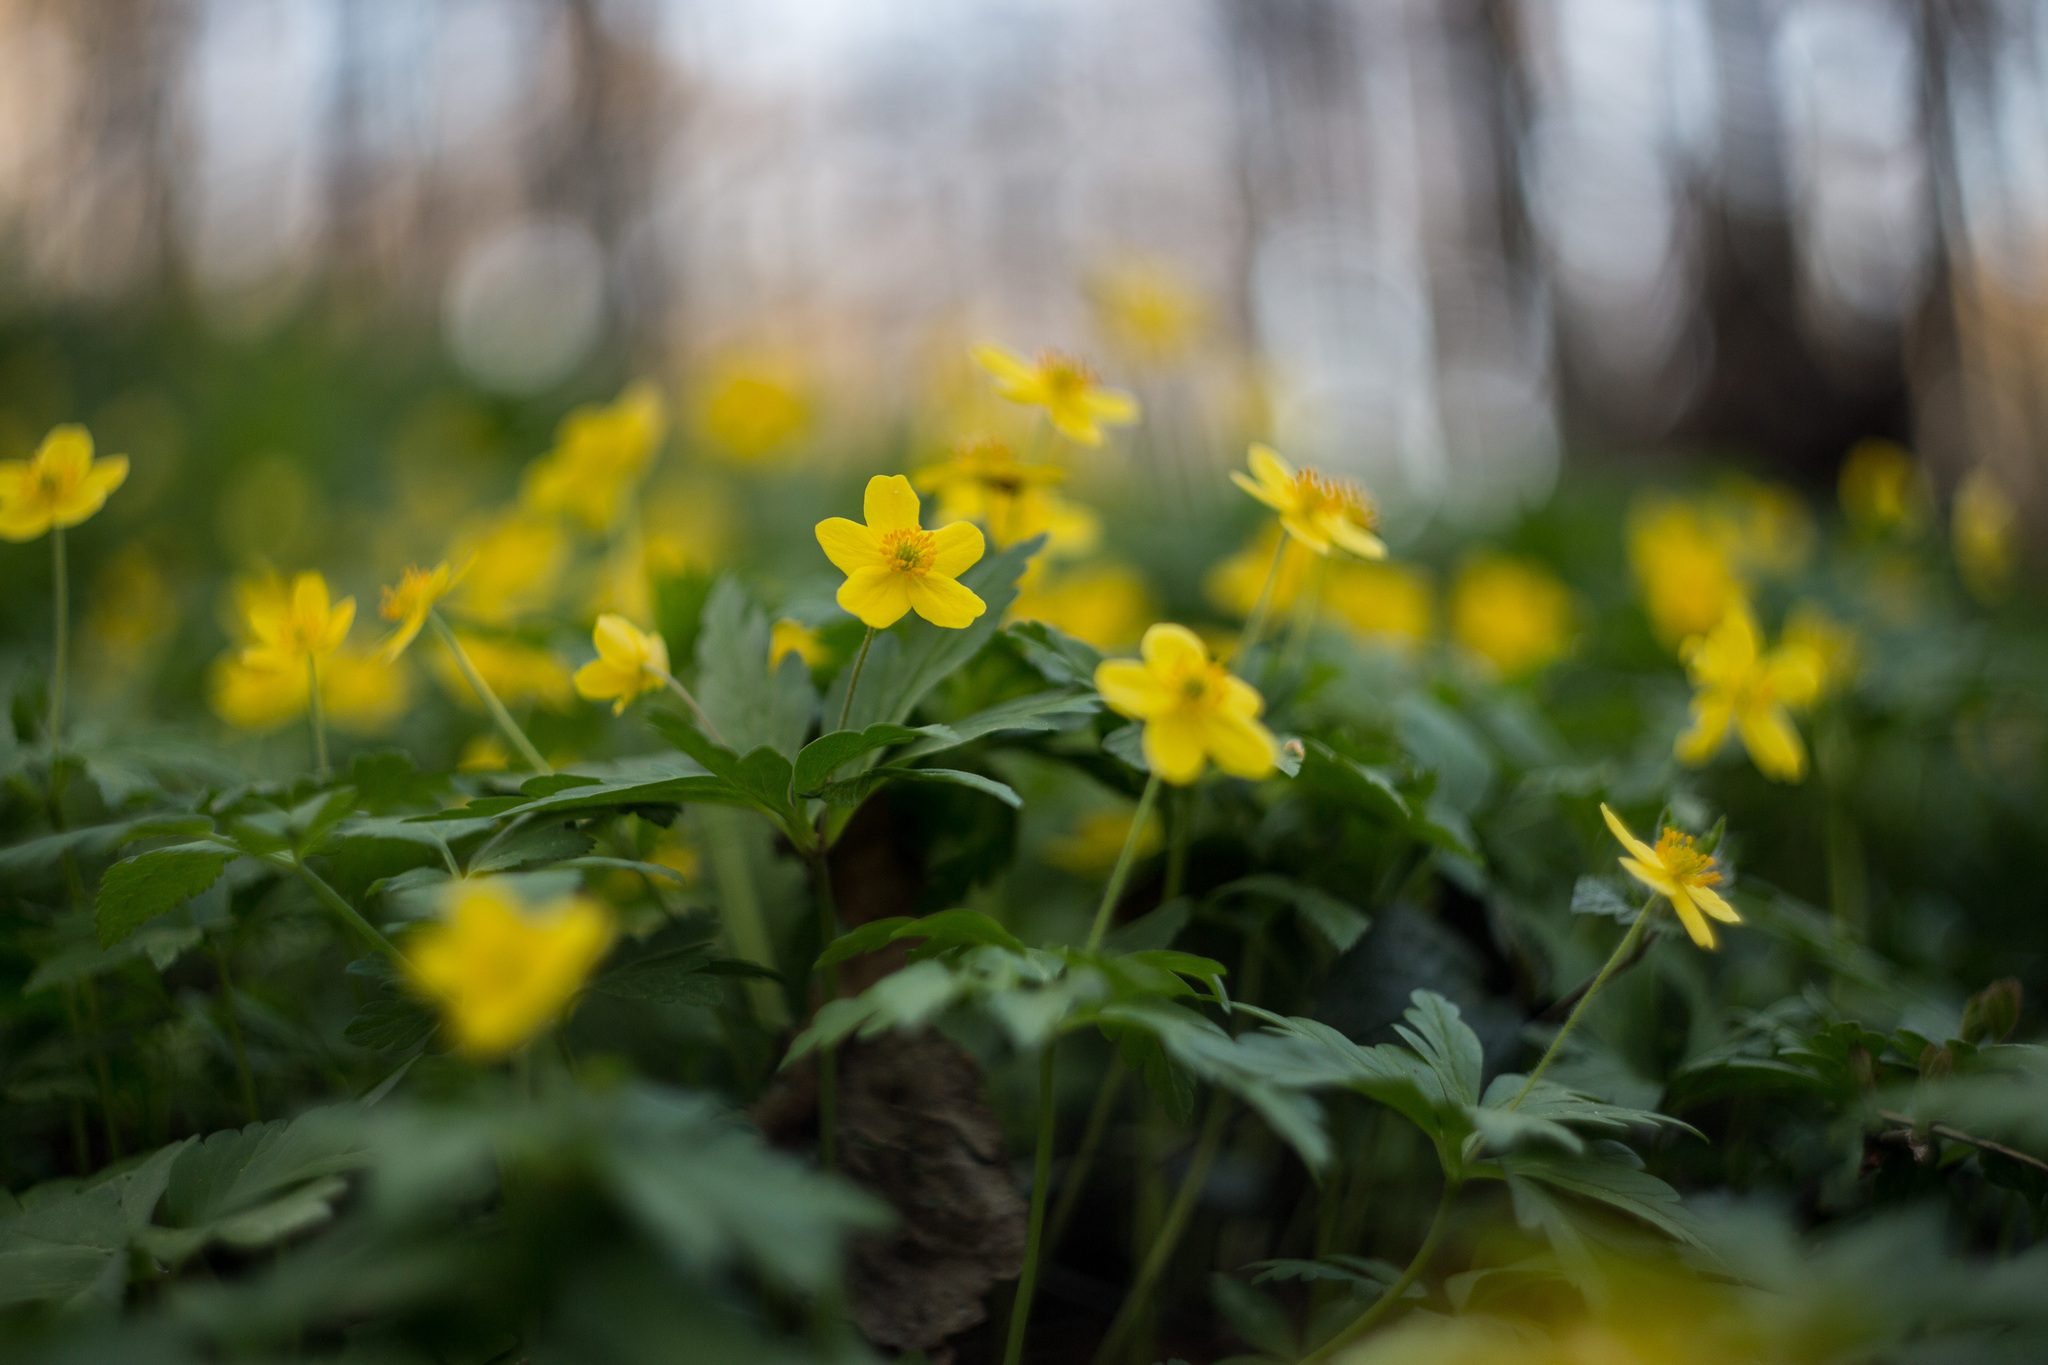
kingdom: Plantae
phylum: Tracheophyta
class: Magnoliopsida
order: Ranunculales
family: Ranunculaceae
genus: Anemone
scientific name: Anemone ranunculoides
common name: Yellow anemone
